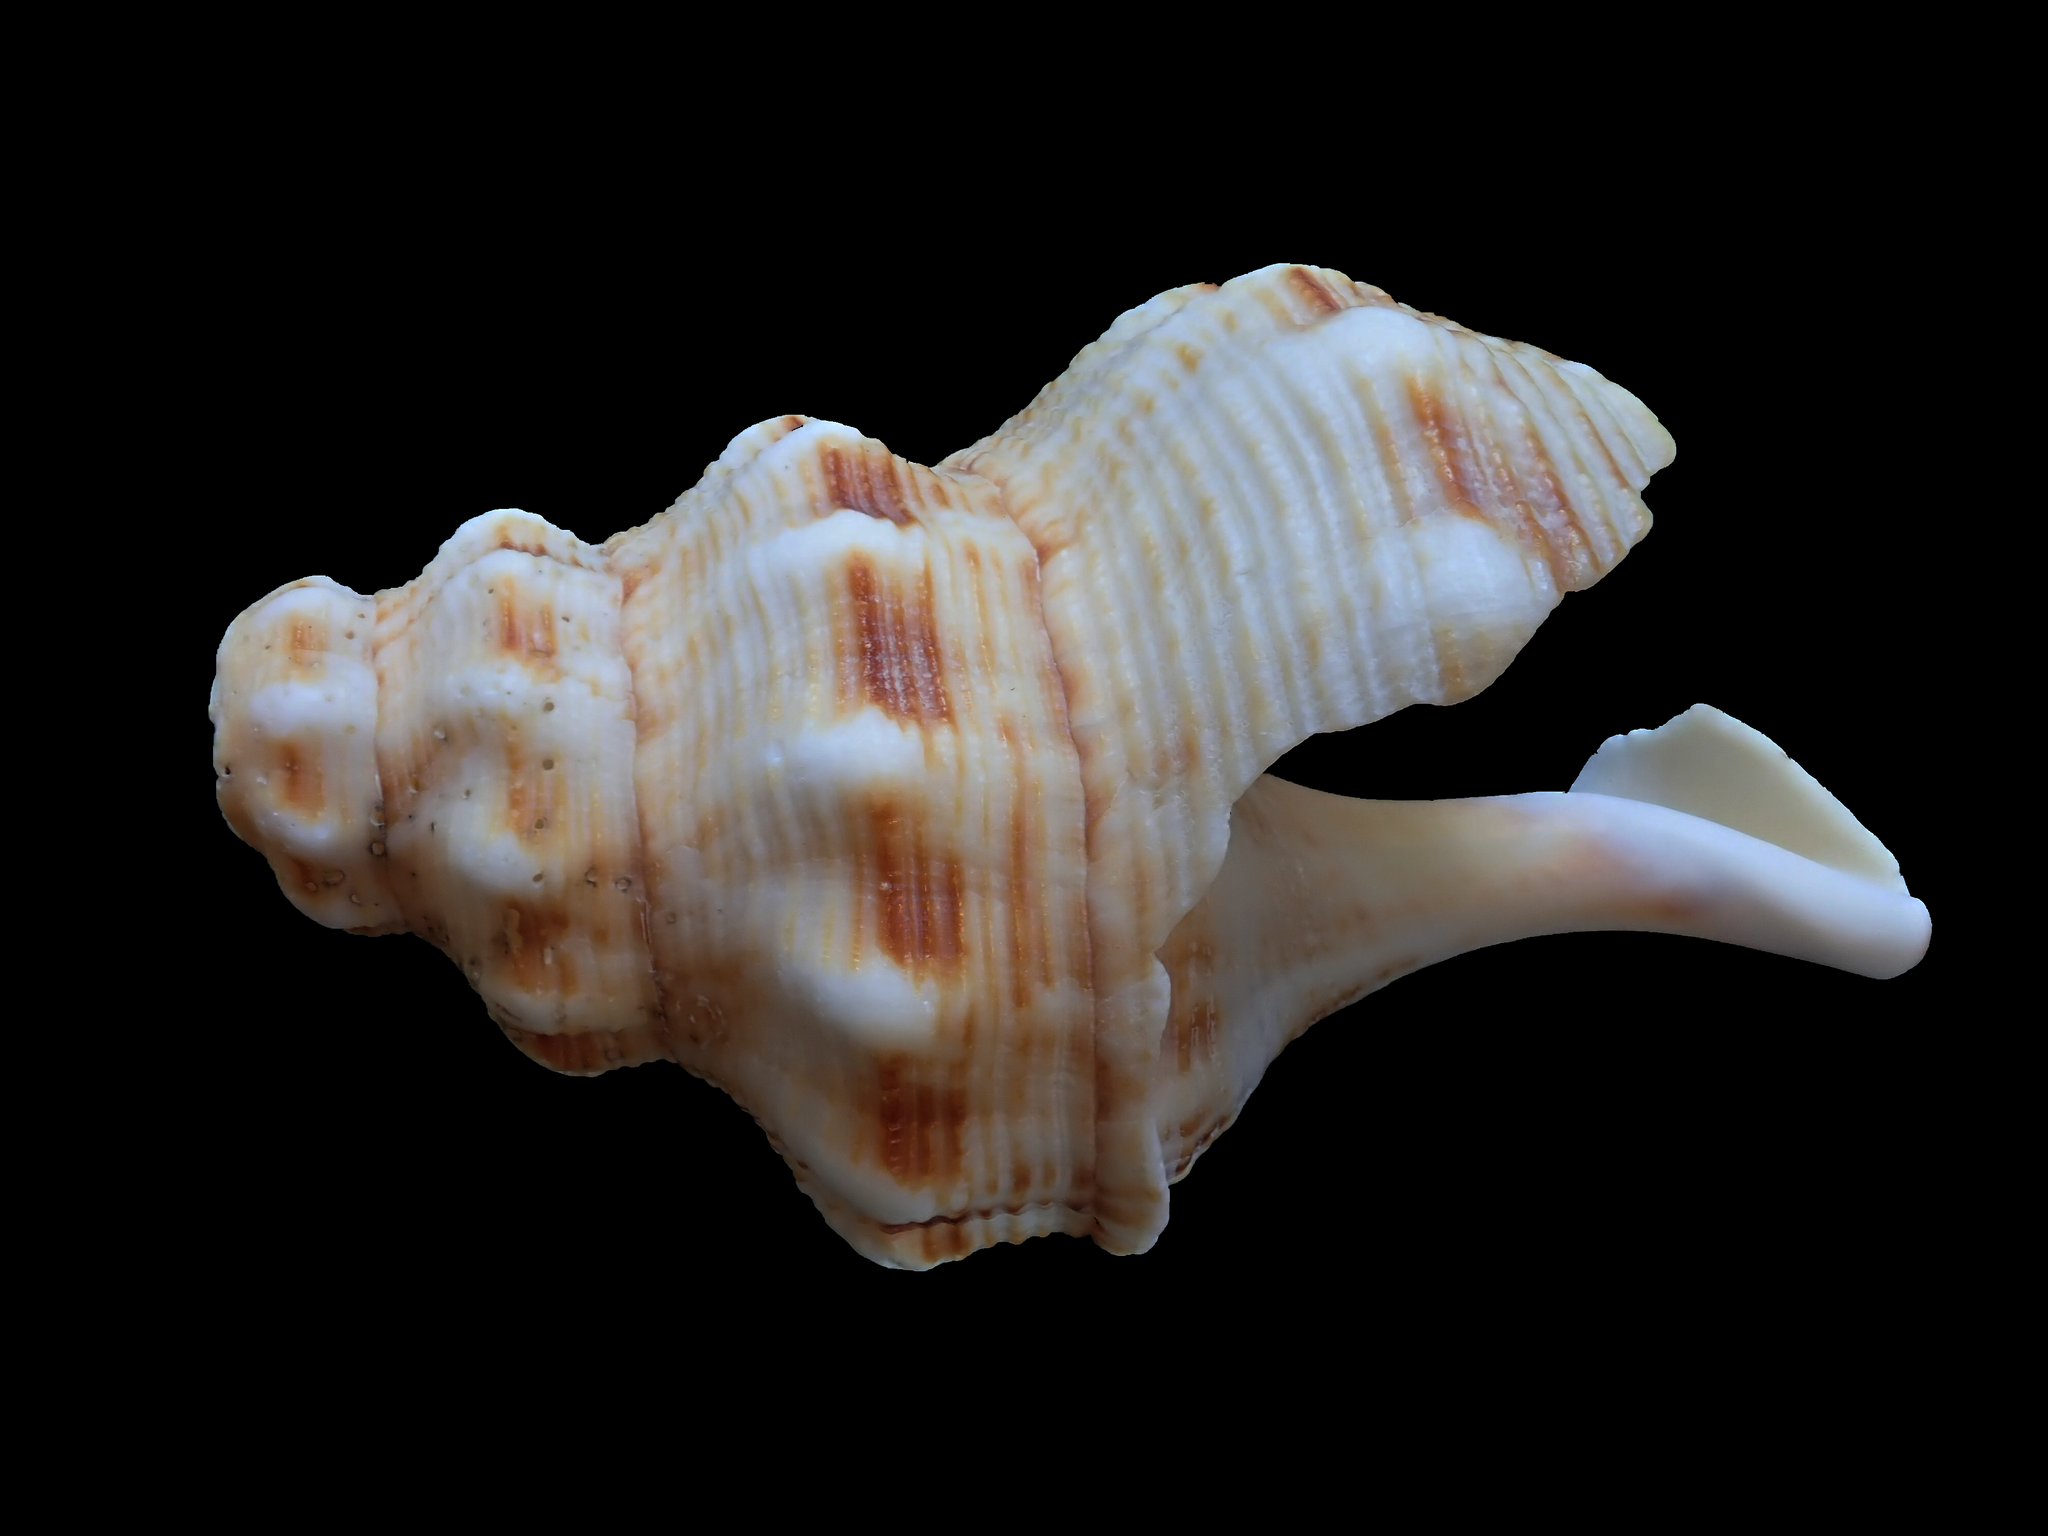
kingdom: Animalia
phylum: Mollusca
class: Gastropoda
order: Neogastropoda
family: Austrosiphonidae
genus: Penion
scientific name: Penion maximus
